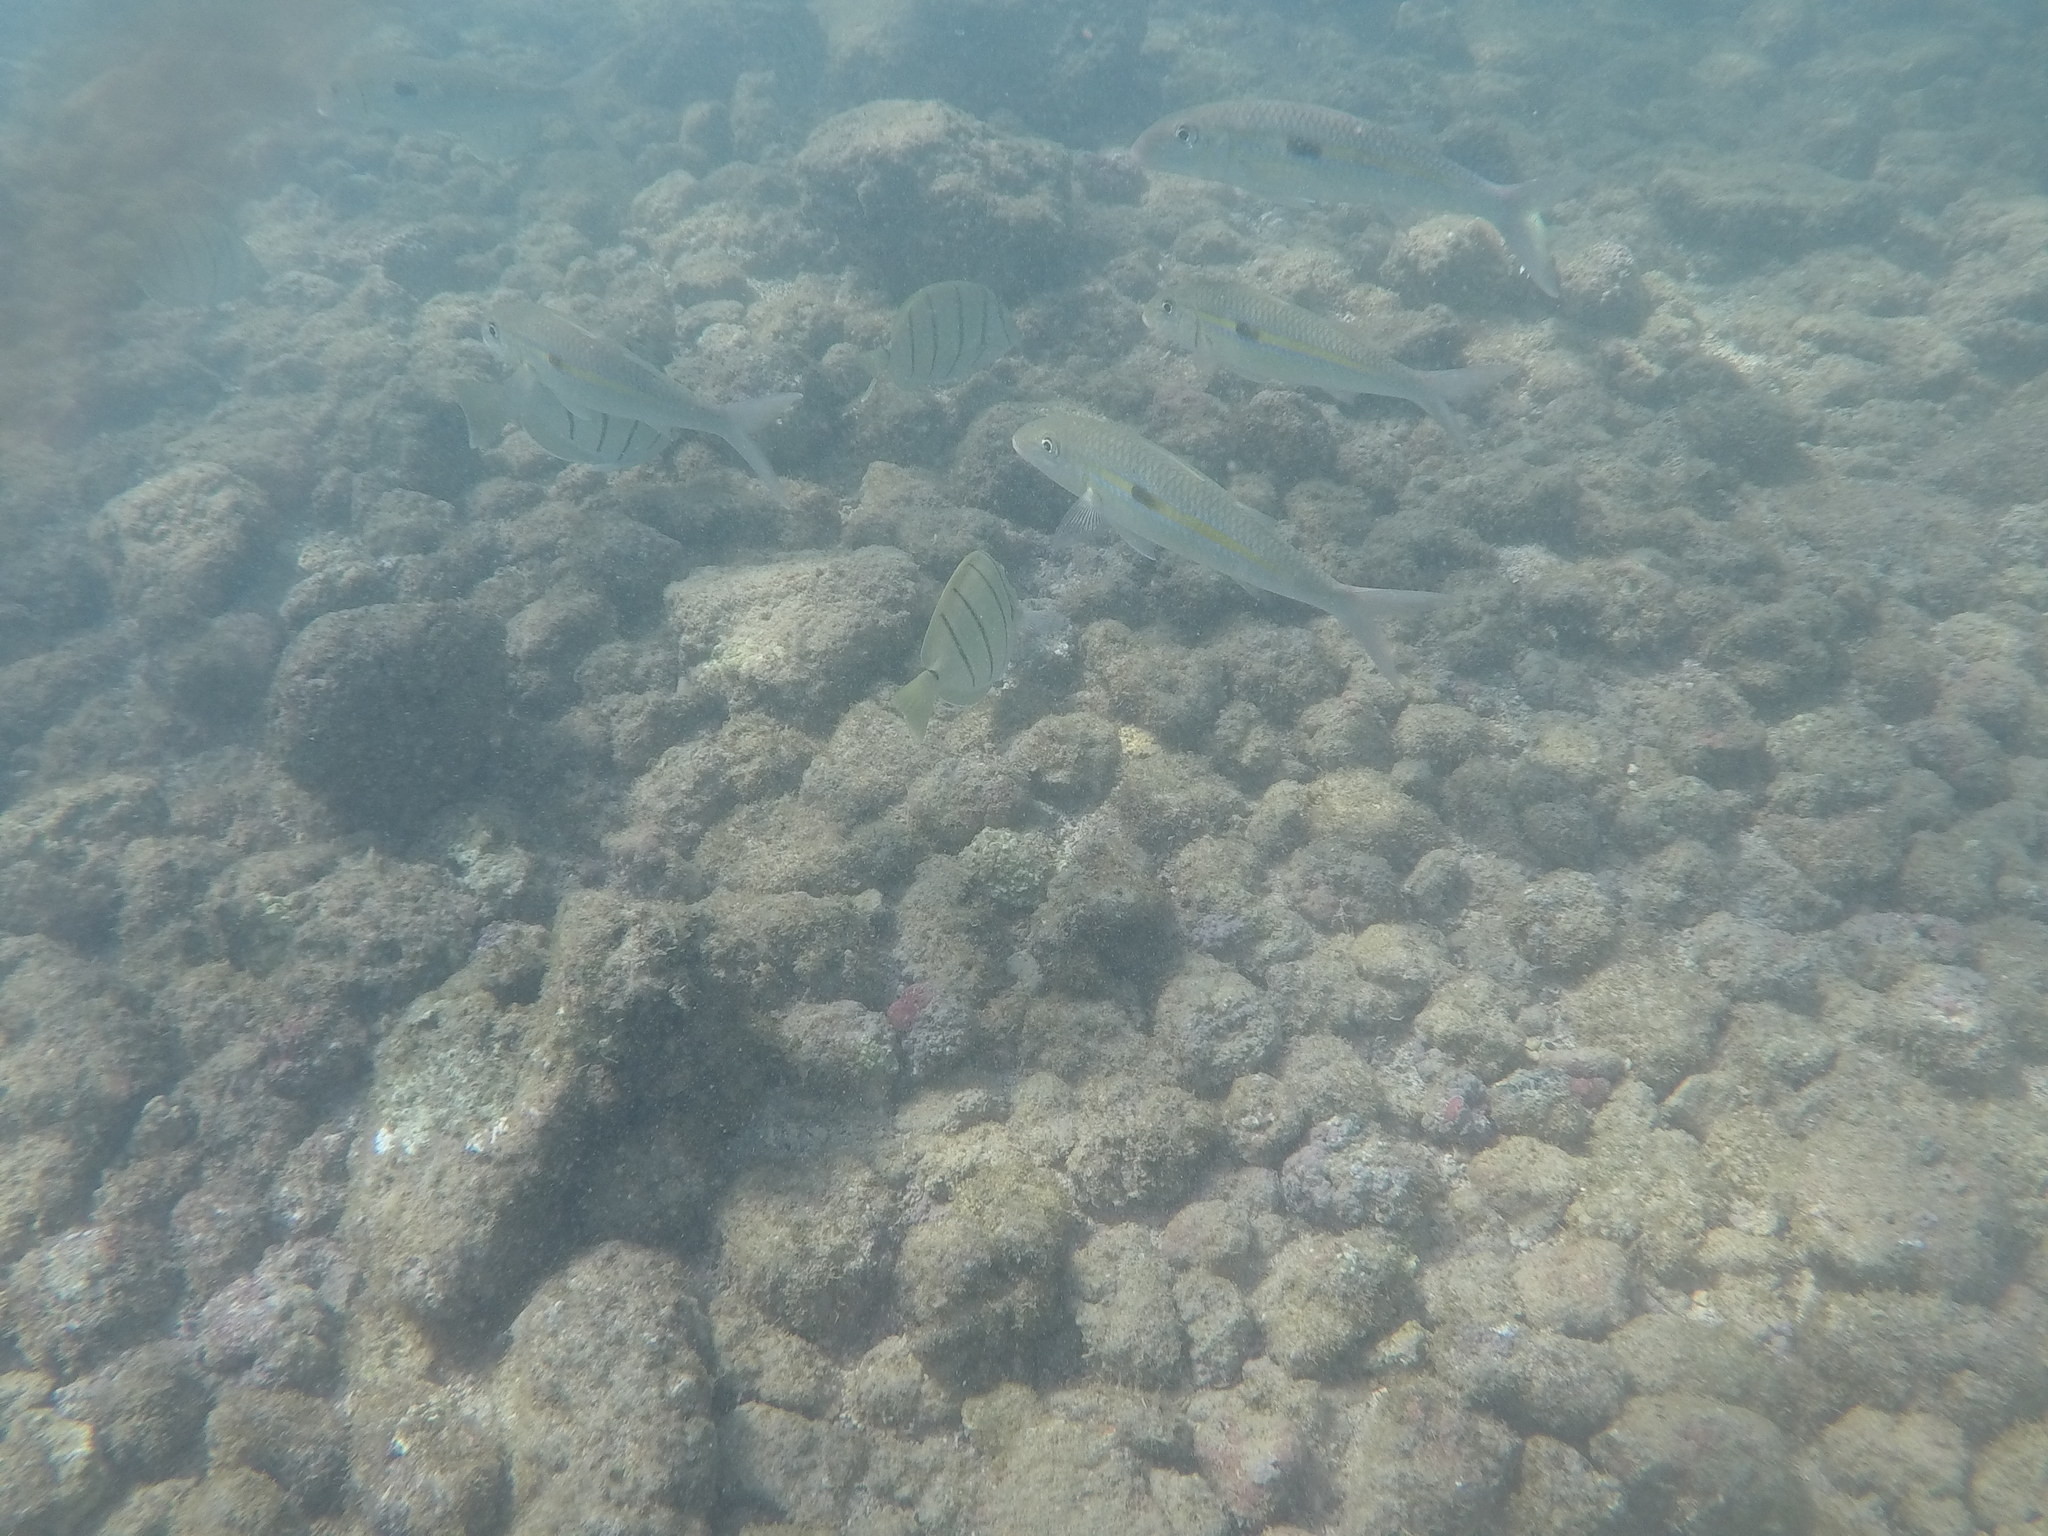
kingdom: Animalia
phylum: Chordata
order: Perciformes
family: Mullidae
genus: Mulloidichthys
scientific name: Mulloidichthys flavolineatus
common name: Yellowstripe goatfish
